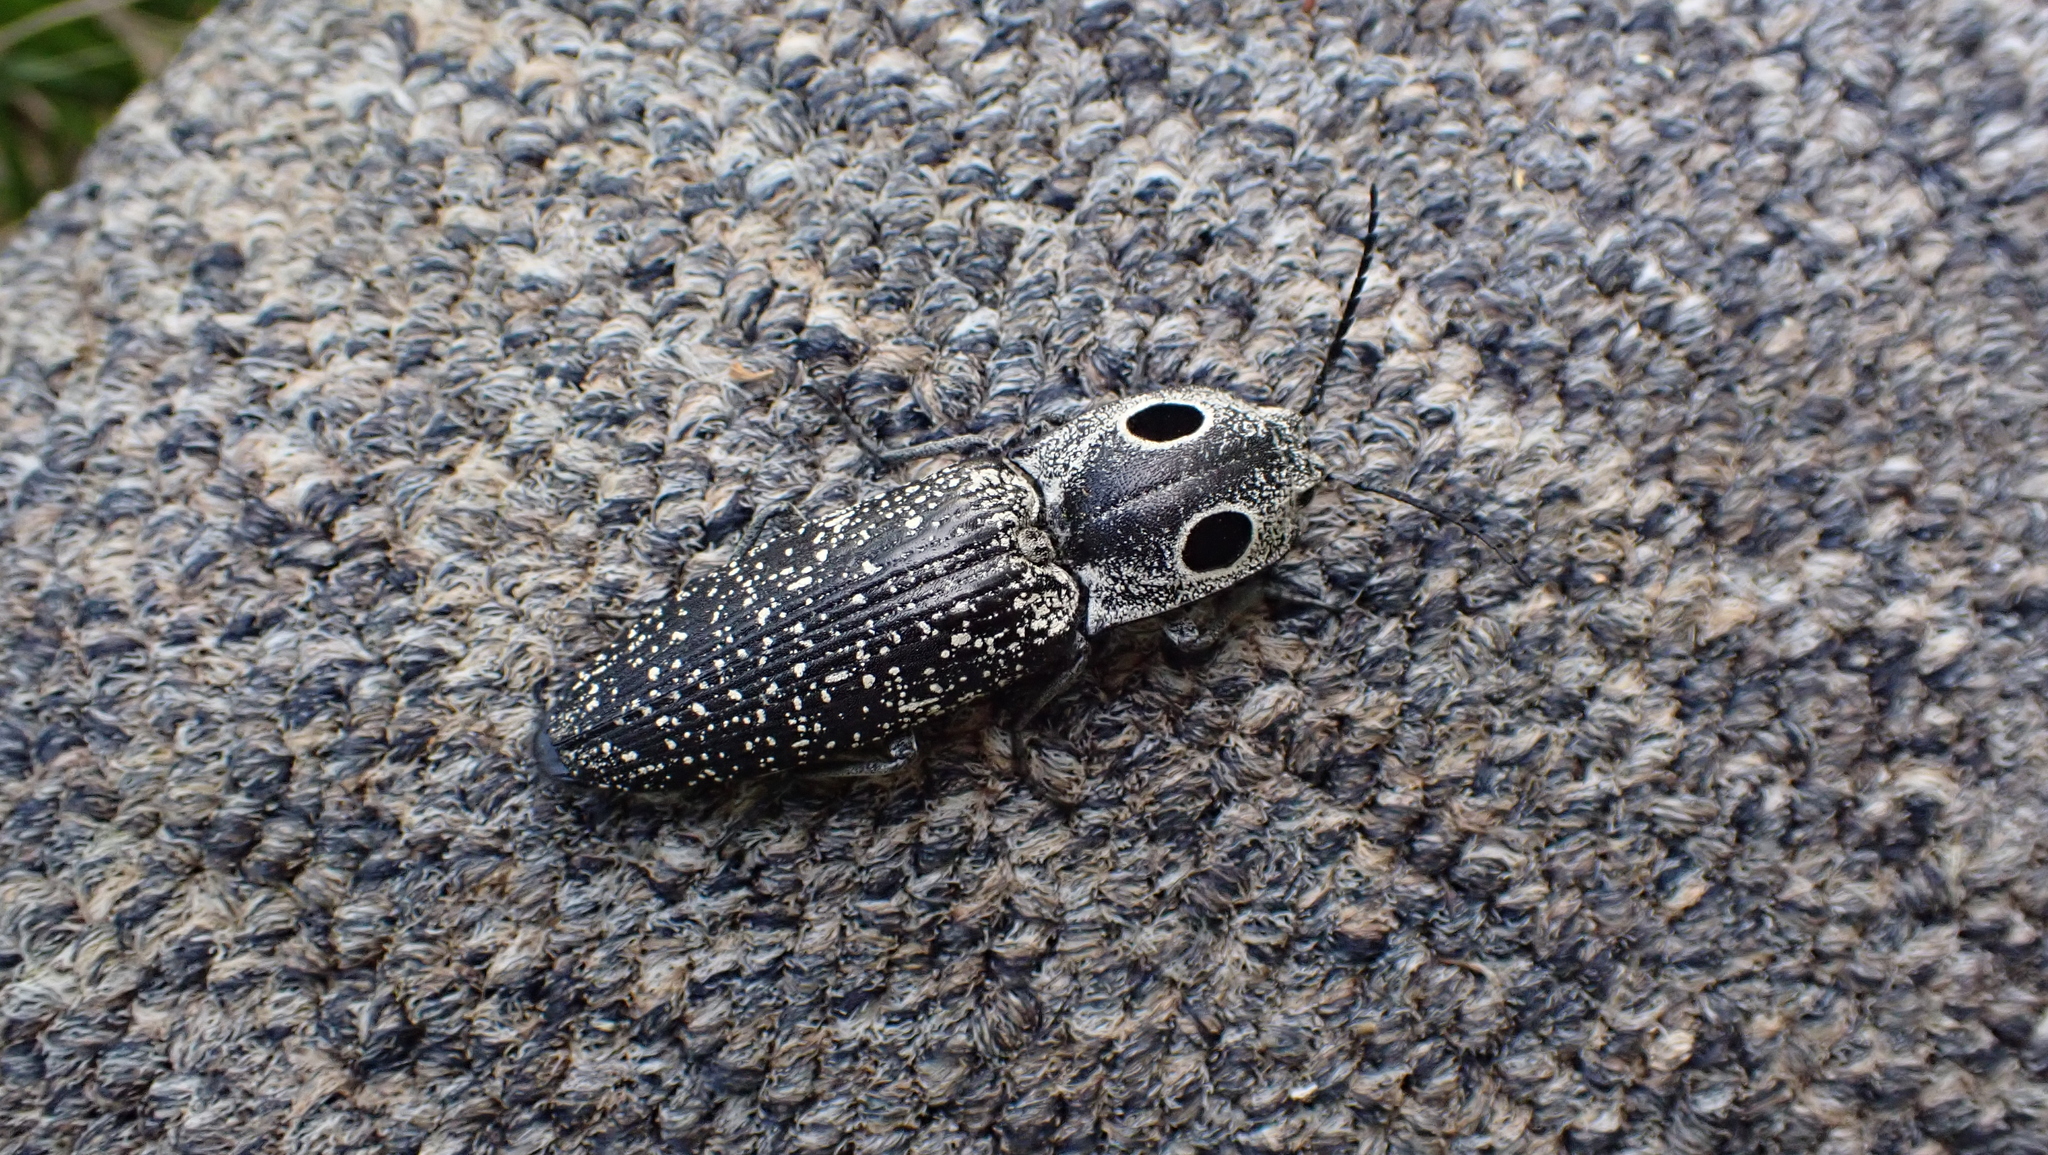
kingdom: Animalia
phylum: Arthropoda
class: Insecta
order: Coleoptera
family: Elateridae
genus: Alaus
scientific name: Alaus oculatus
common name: Eastern eyed click beetle
